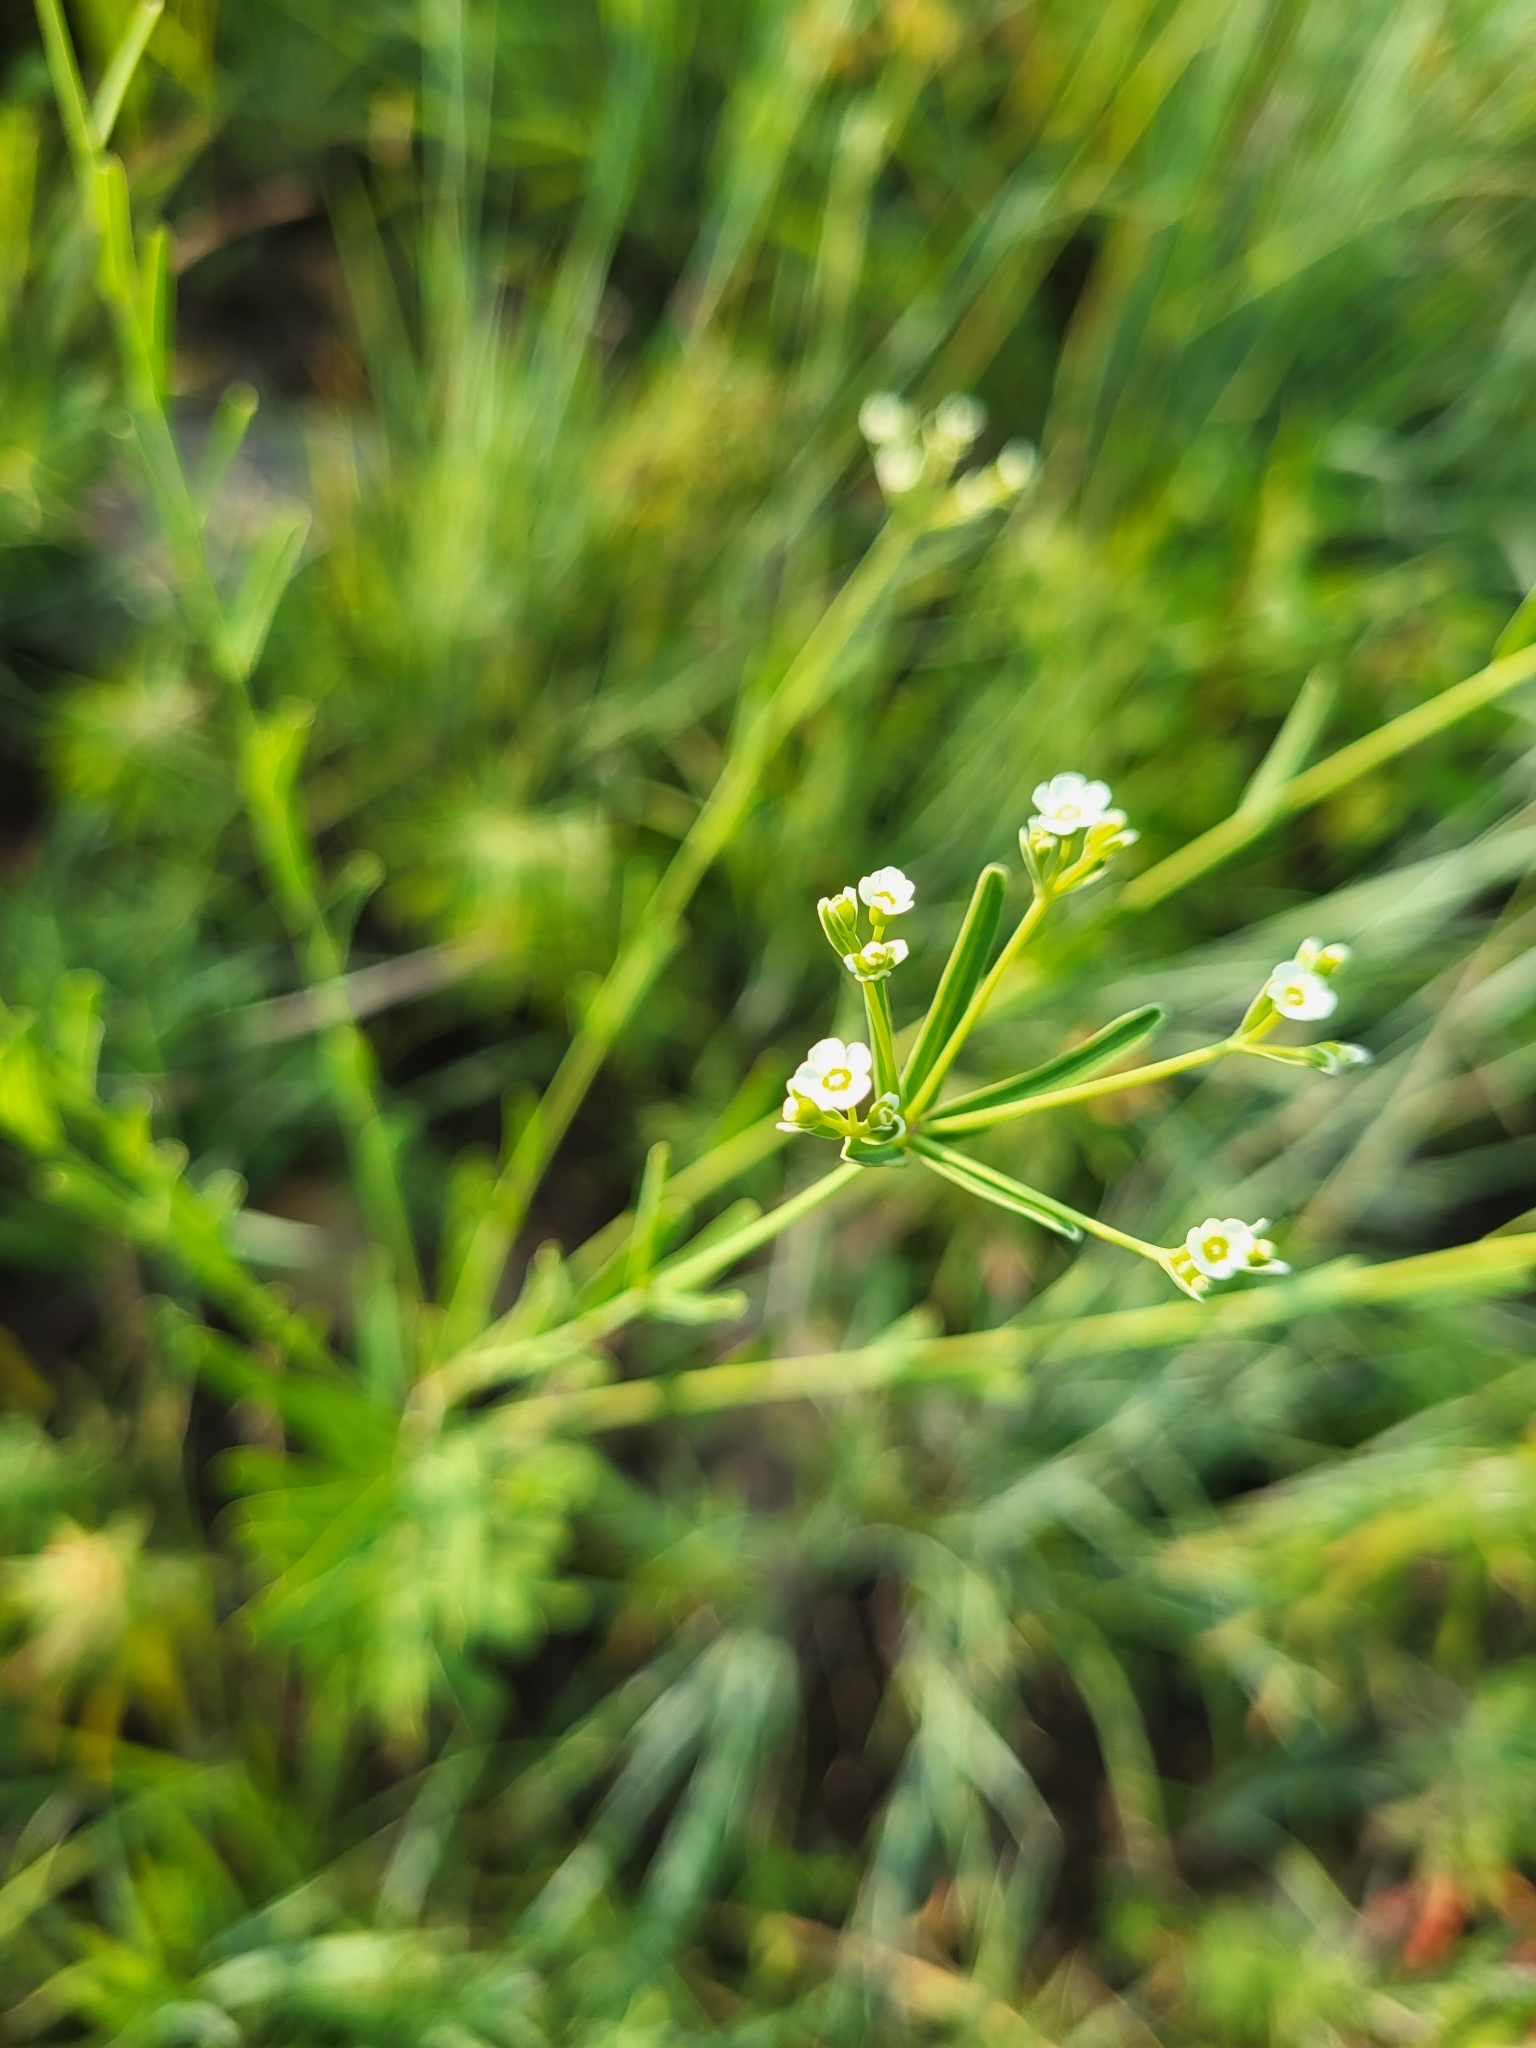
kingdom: Plantae
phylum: Tracheophyta
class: Magnoliopsida
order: Malpighiales
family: Euphorbiaceae
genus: Euphorbia
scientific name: Euphorbia corollata
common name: Flowering spurge
